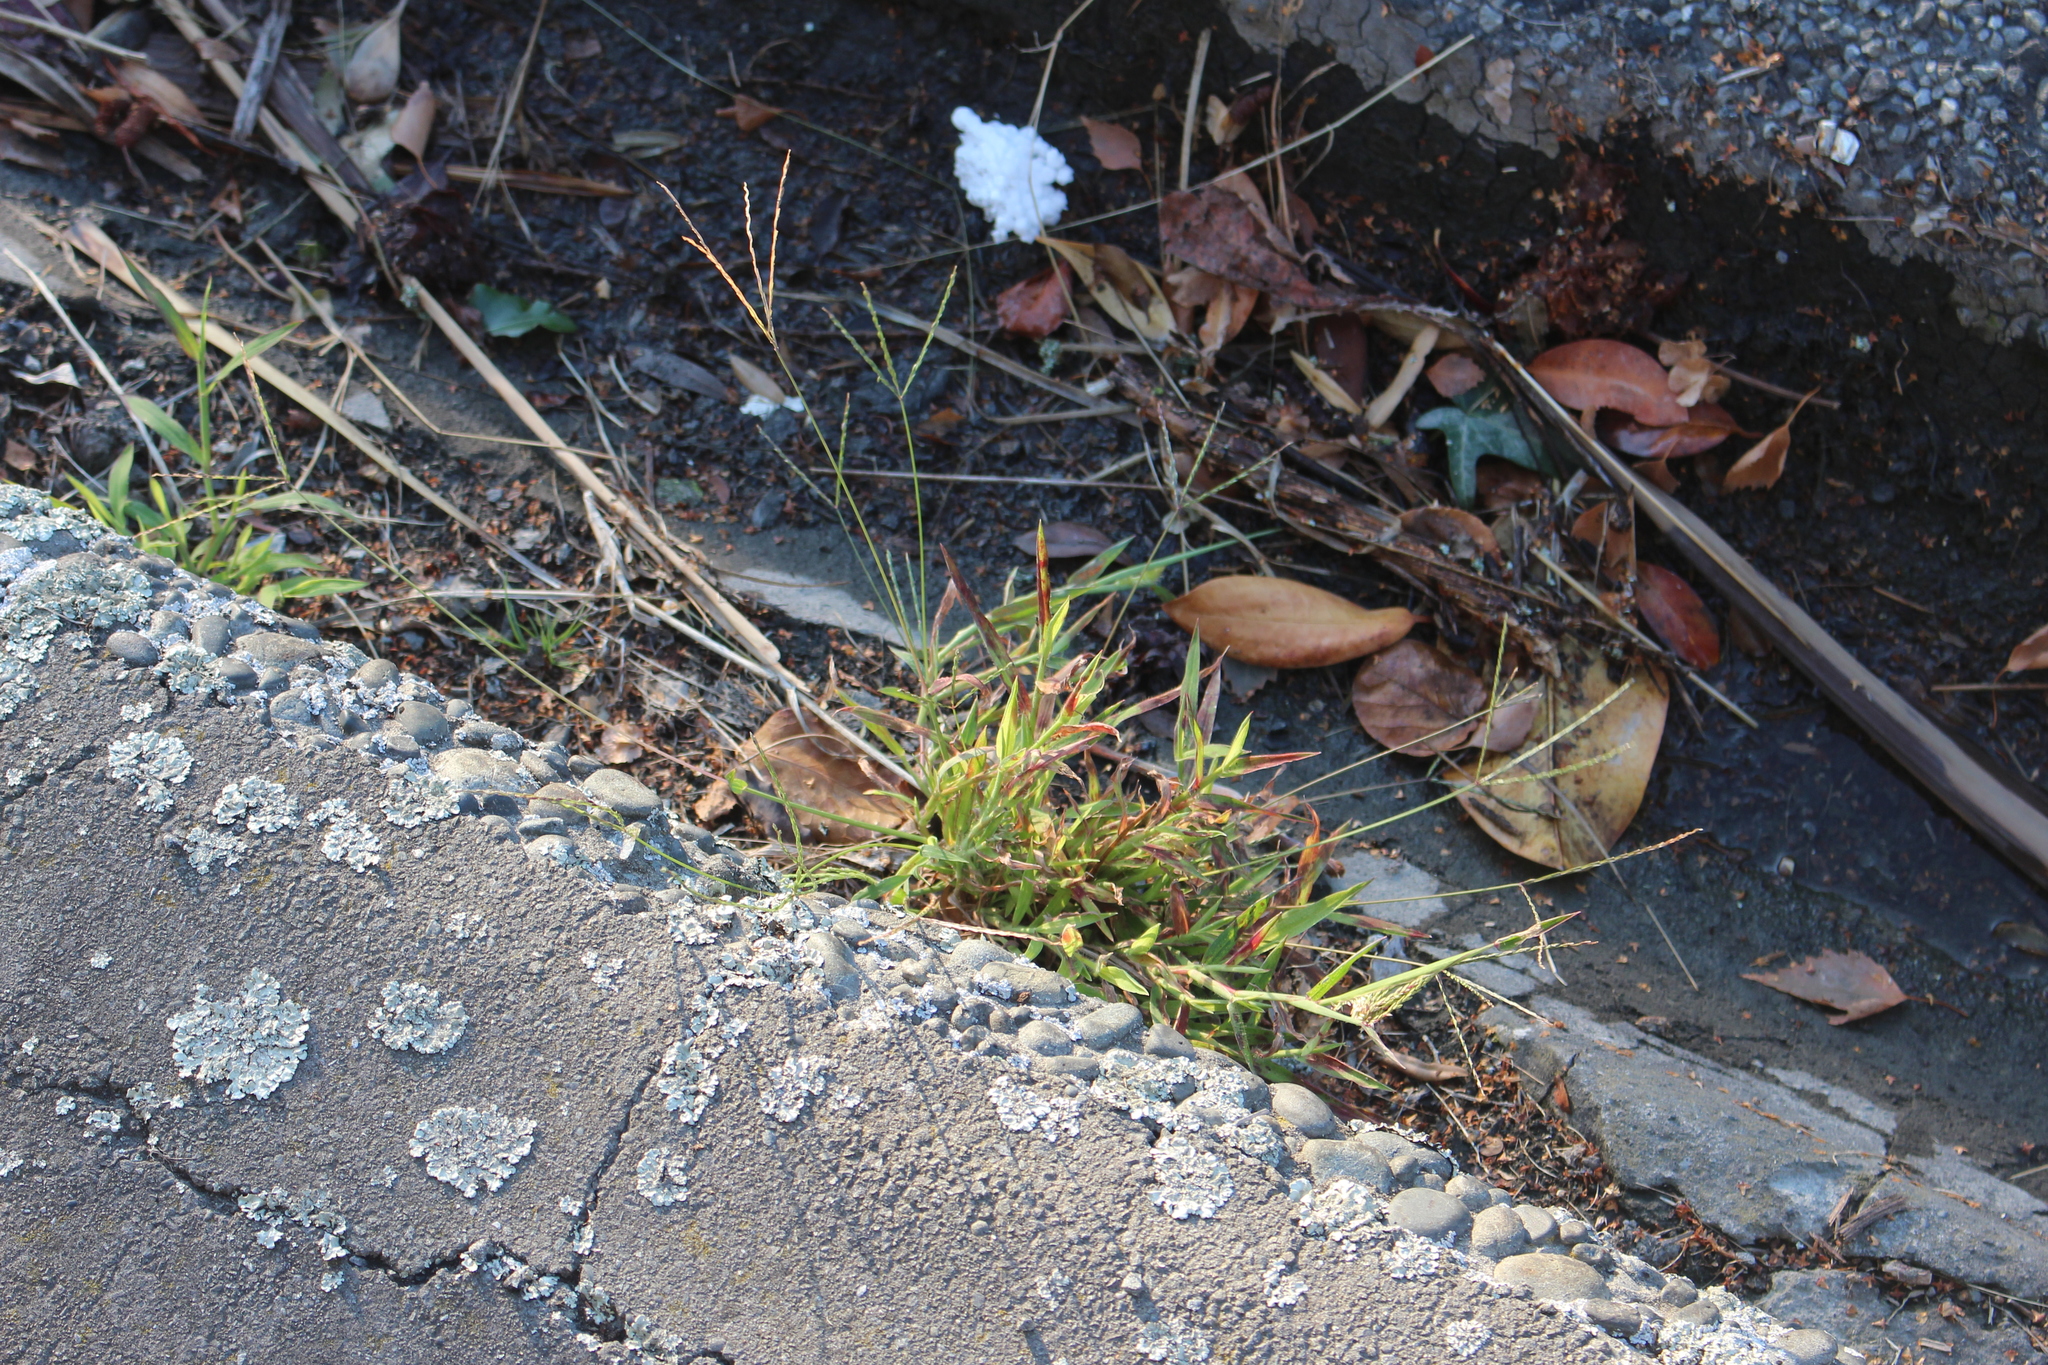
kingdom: Plantae
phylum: Tracheophyta
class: Liliopsida
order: Poales
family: Poaceae
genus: Digitaria
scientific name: Digitaria sanguinalis
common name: Hairy crabgrass
